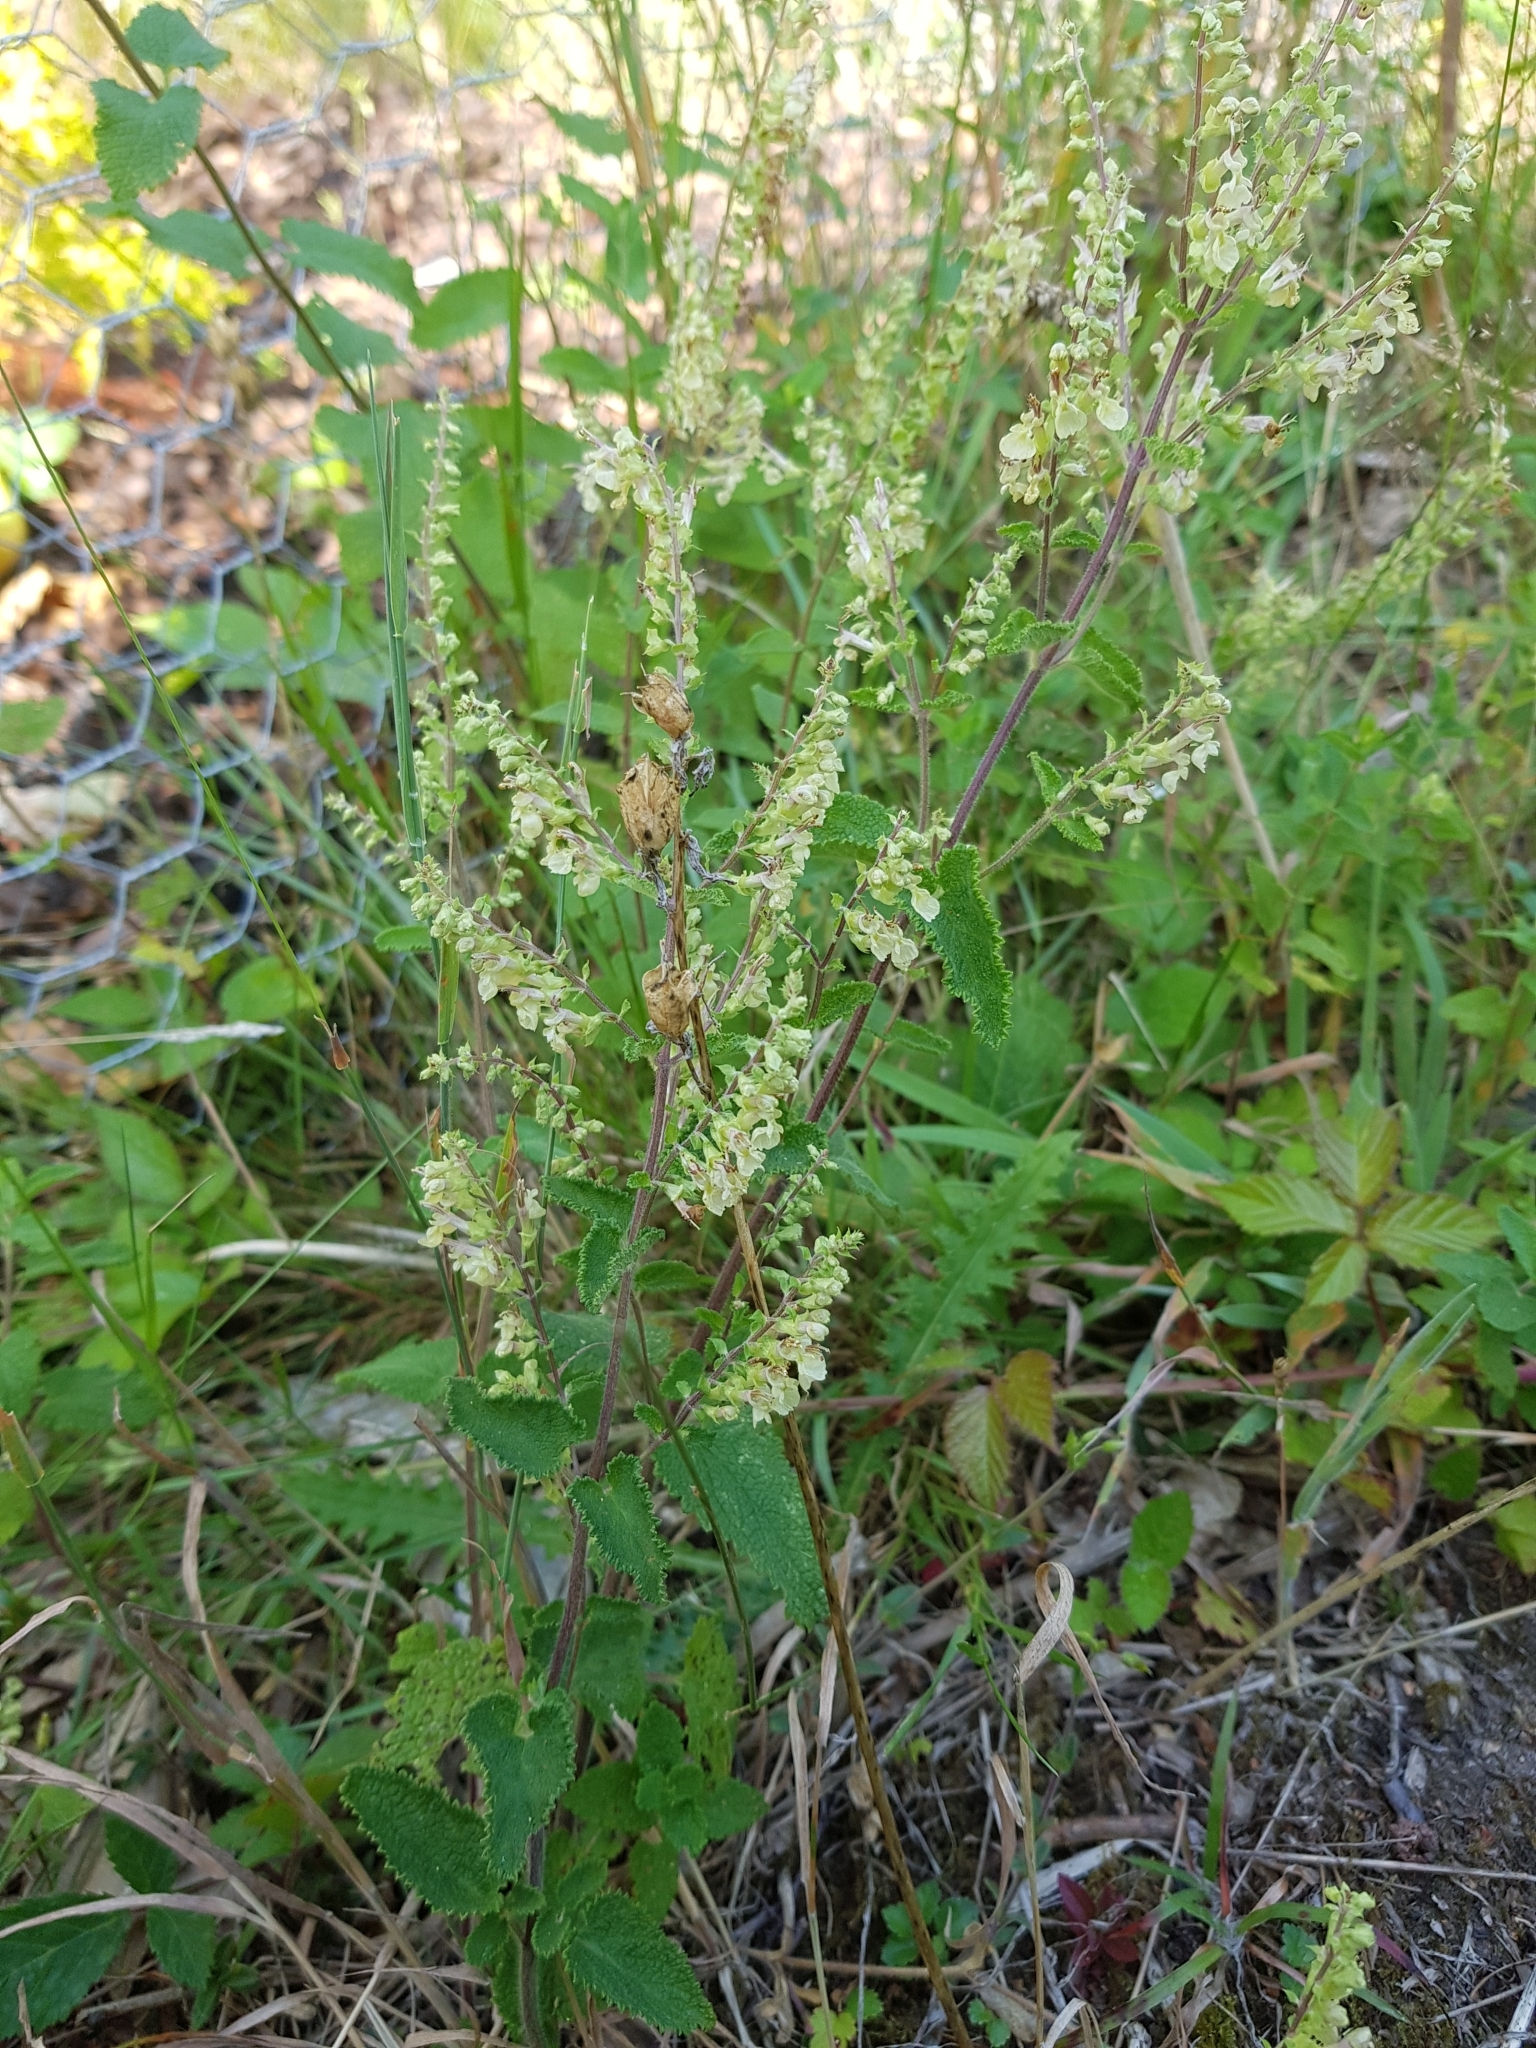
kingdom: Plantae
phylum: Tracheophyta
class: Magnoliopsida
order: Lamiales
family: Lamiaceae
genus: Teucrium
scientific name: Teucrium scorodonia
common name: Woodland germander
